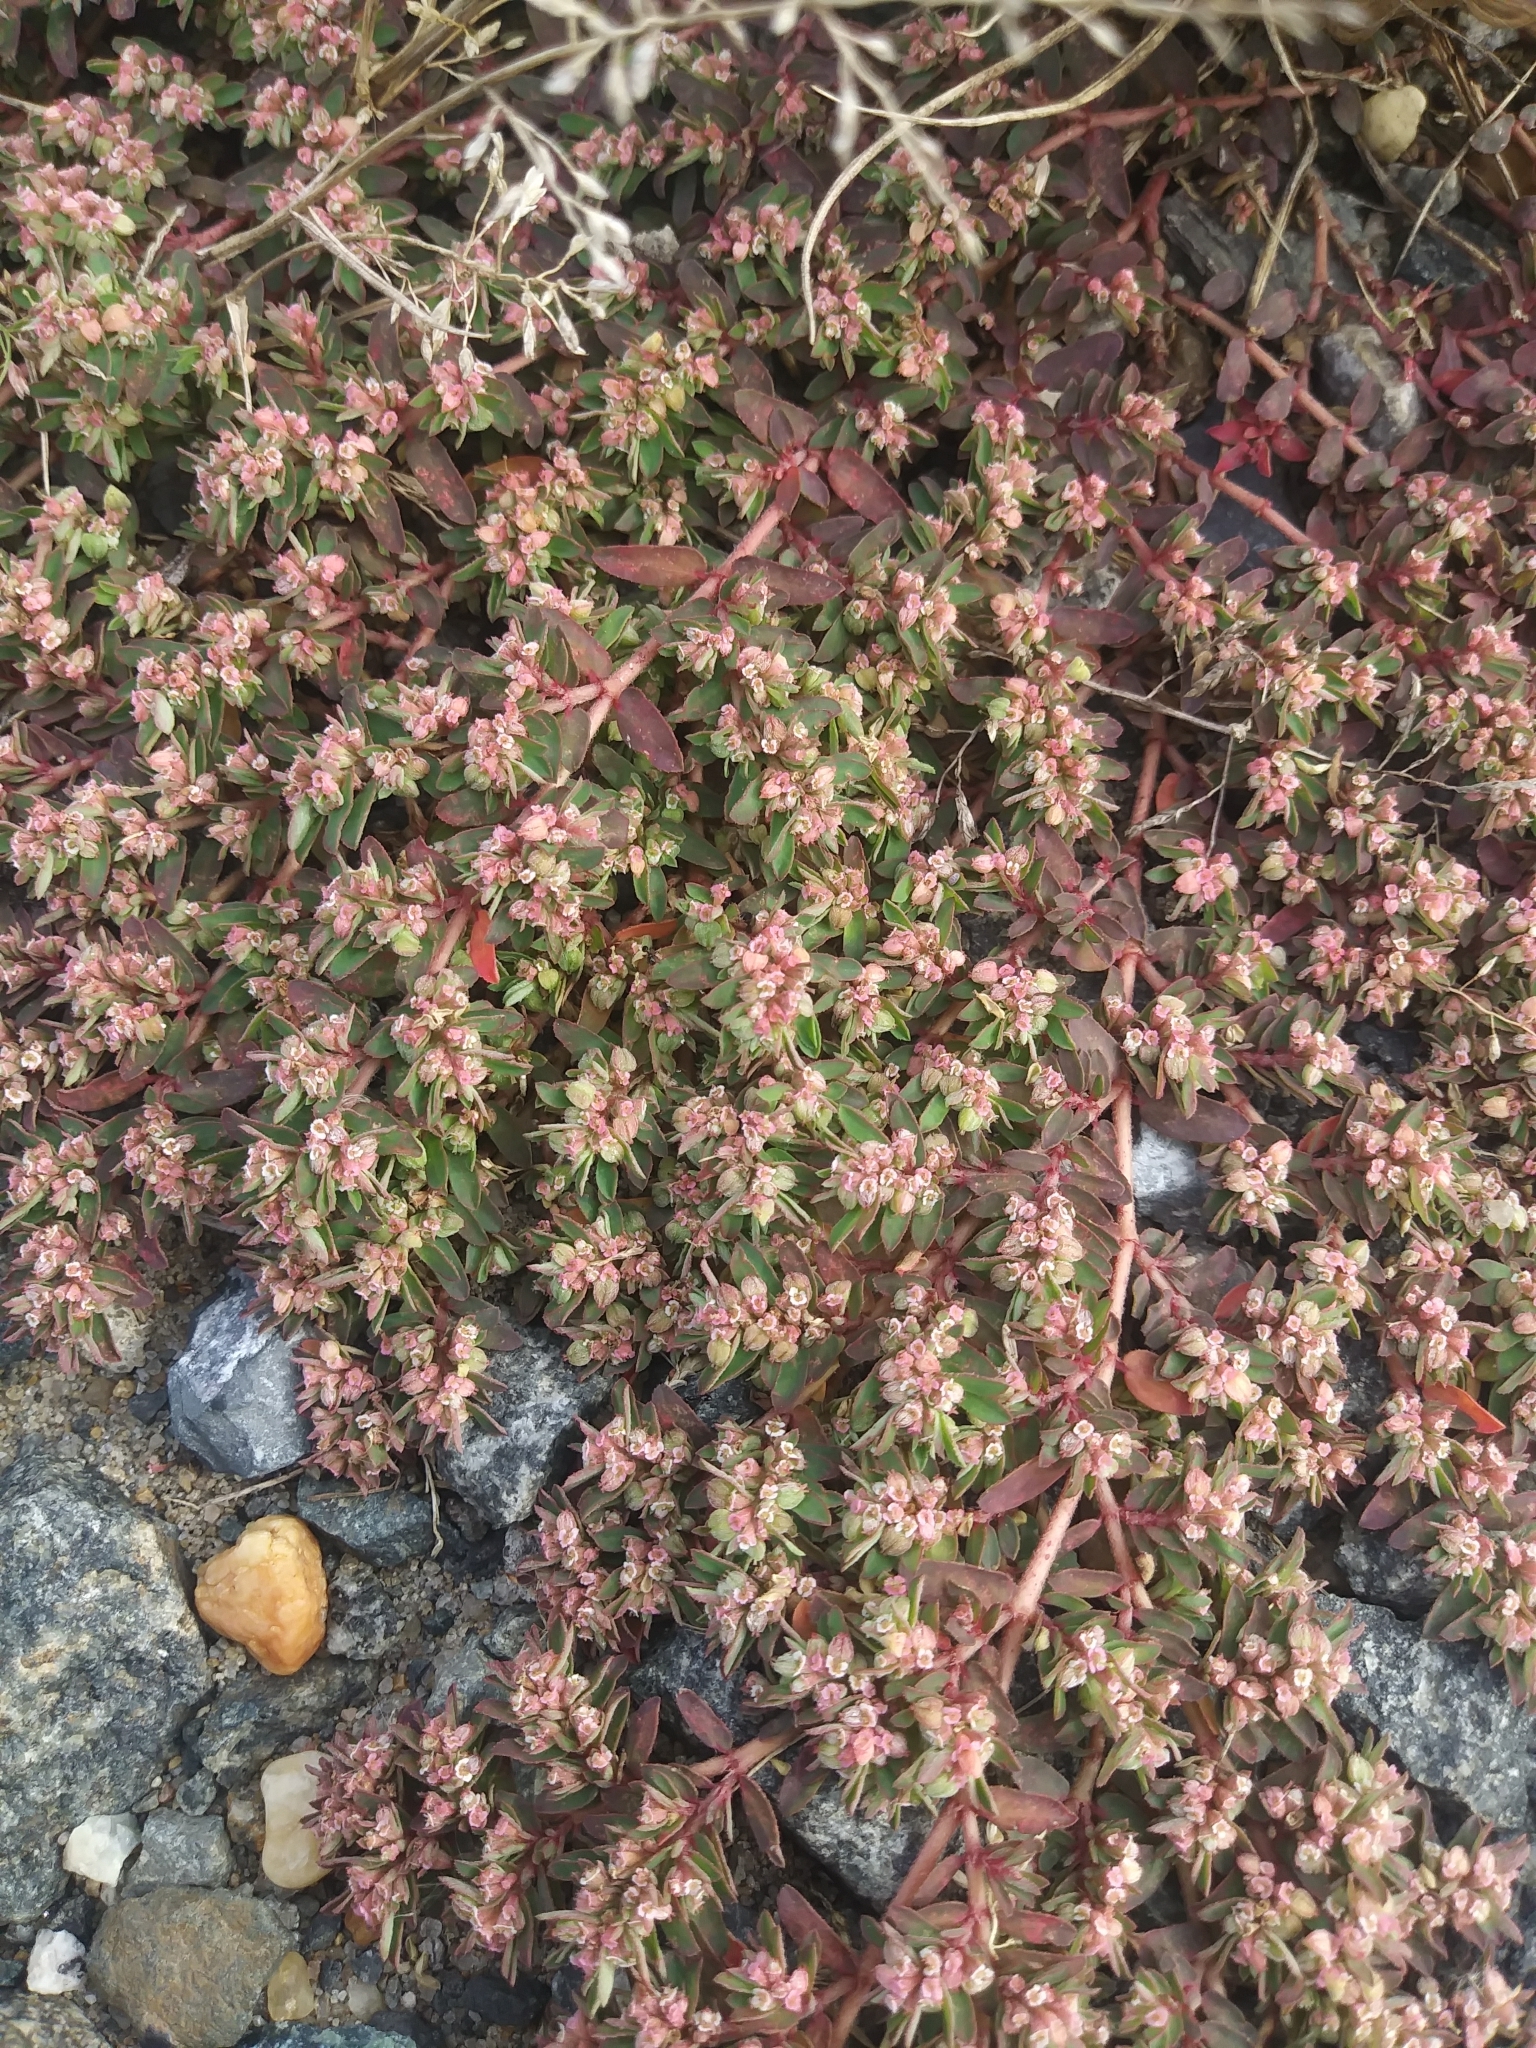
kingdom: Plantae
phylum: Tracheophyta
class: Magnoliopsida
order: Malpighiales
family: Euphorbiaceae
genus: Euphorbia
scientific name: Euphorbia maculata
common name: Spotted spurge
